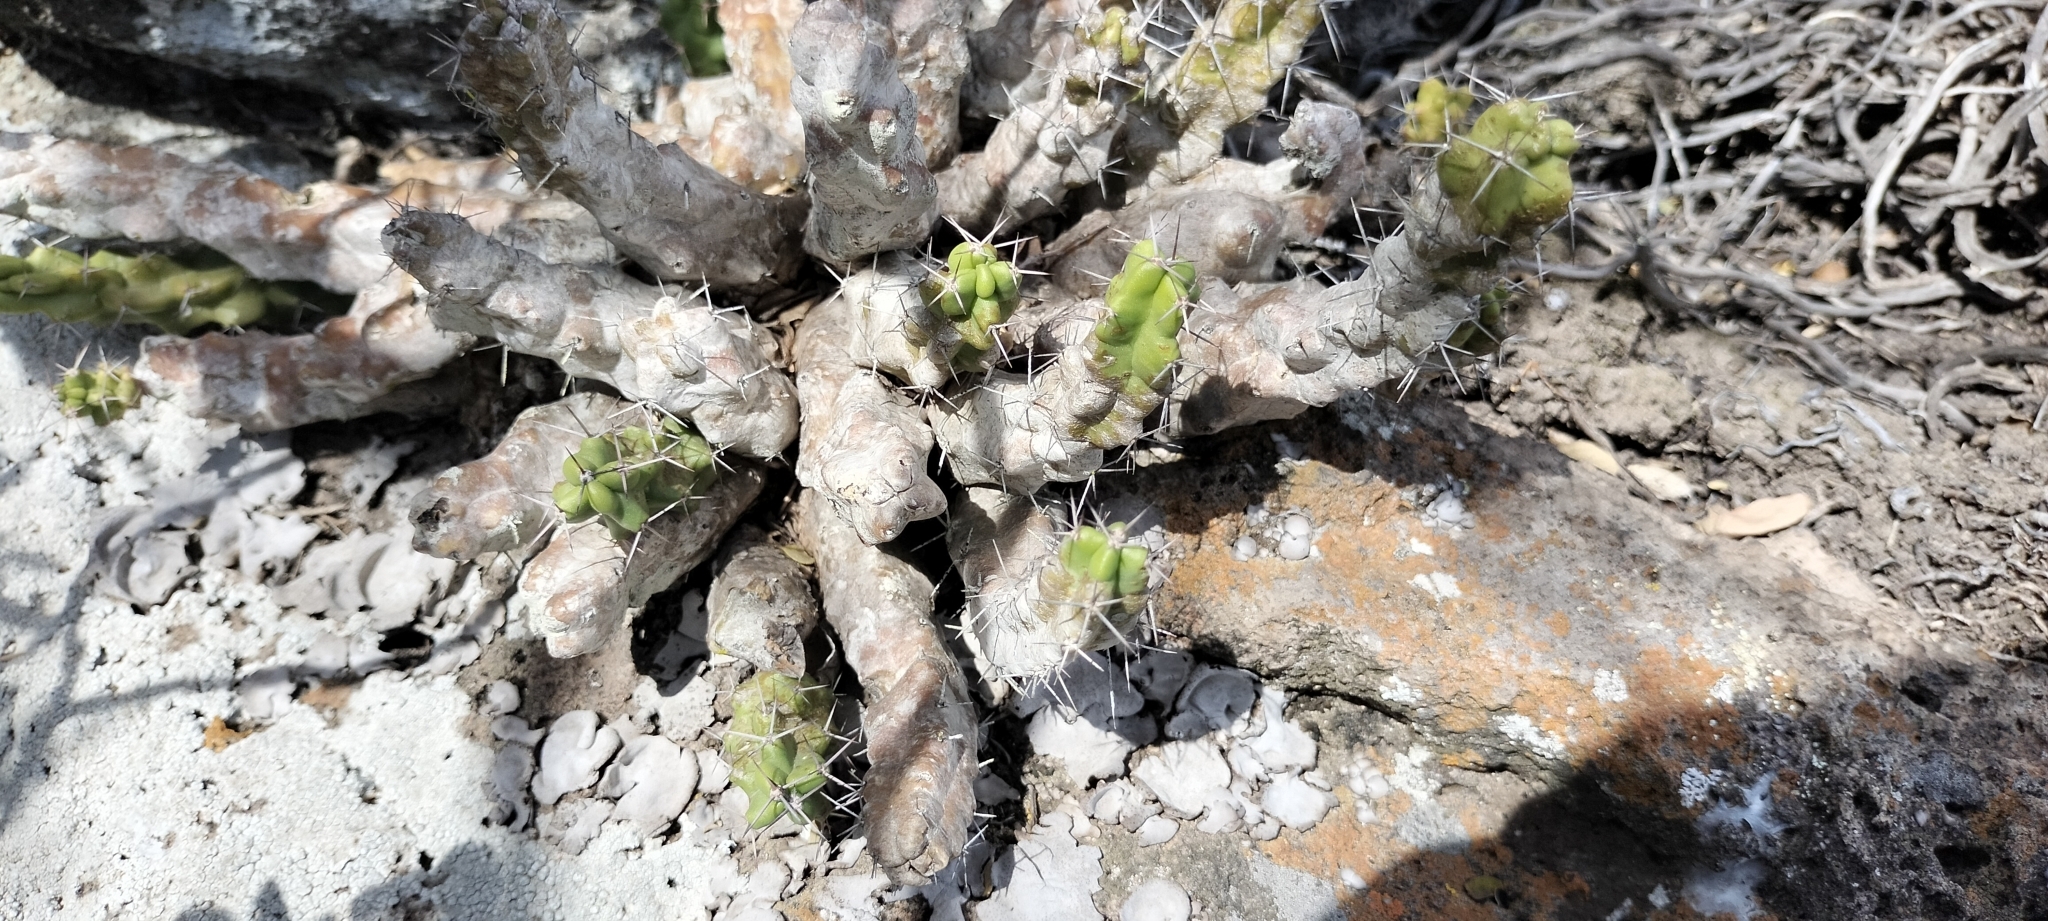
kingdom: Plantae
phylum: Tracheophyta
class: Magnoliopsida
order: Caryophyllales
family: Cactaceae
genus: Echinocereus
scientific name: Echinocereus pentalophus
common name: Ladyfinger cactus
